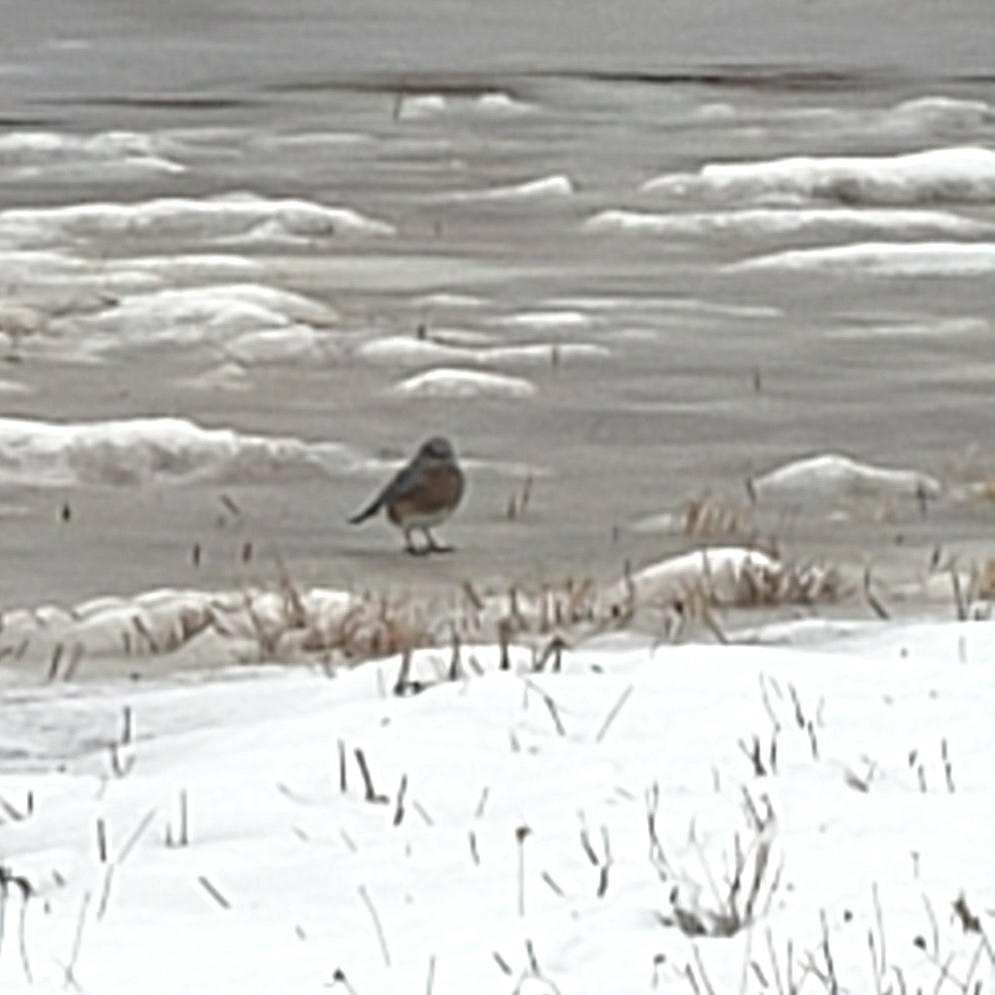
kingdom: Animalia
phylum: Chordata
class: Aves
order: Passeriformes
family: Turdidae
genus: Sialia
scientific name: Sialia sialis
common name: Eastern bluebird
